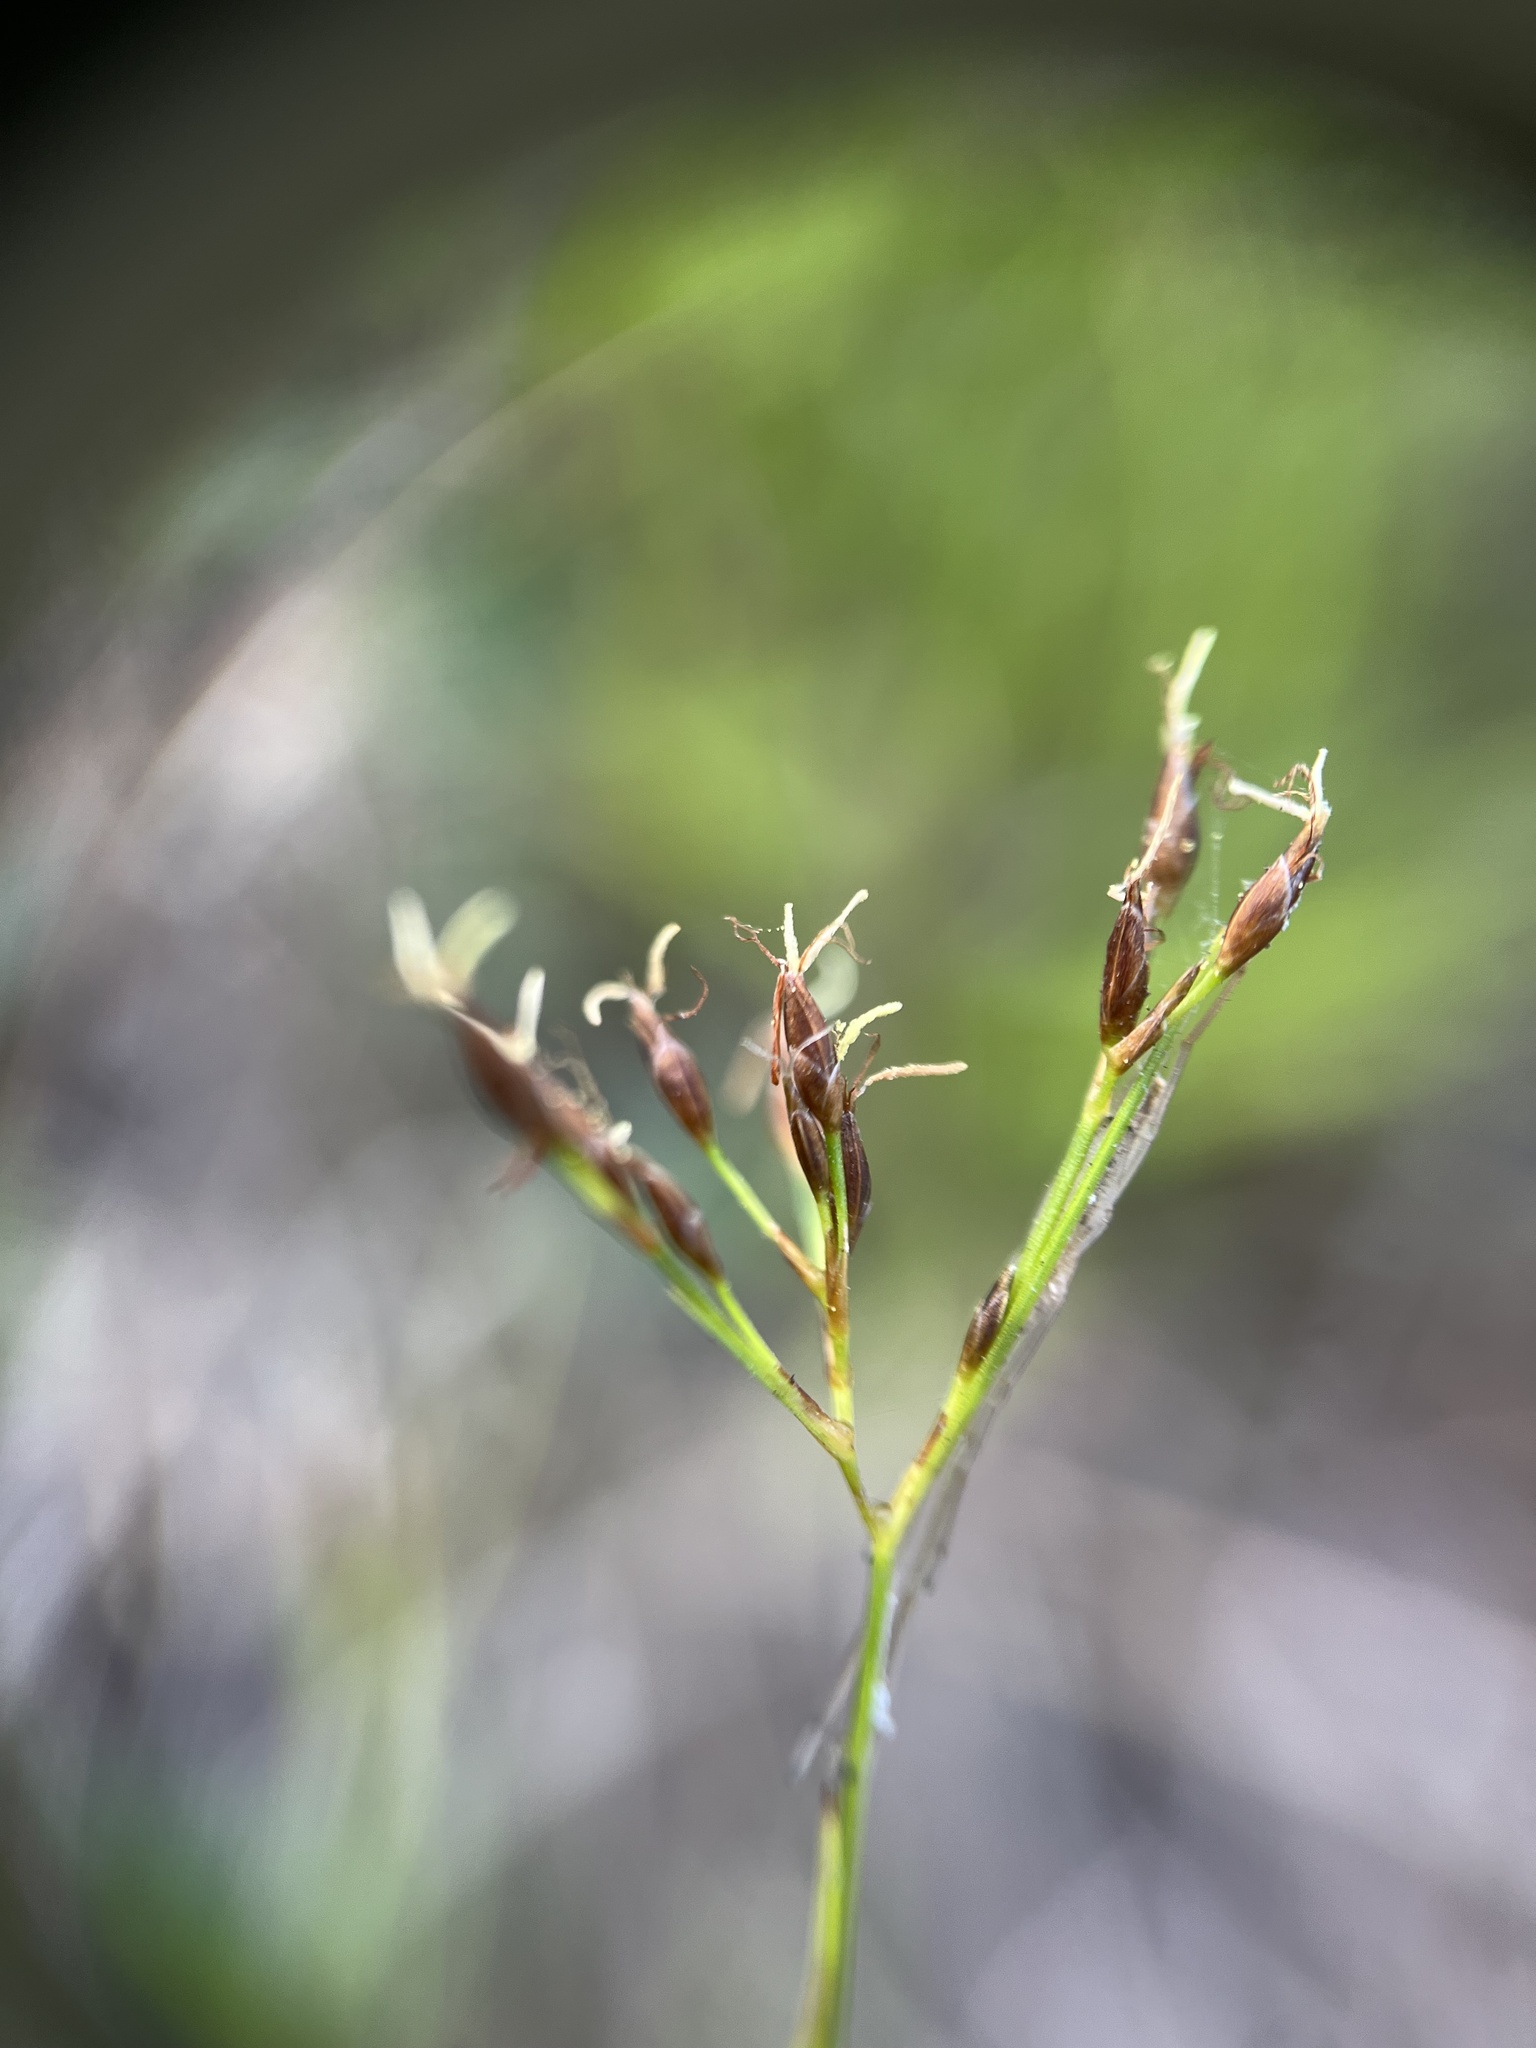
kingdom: Plantae
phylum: Tracheophyta
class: Liliopsida
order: Poales
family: Cyperaceae
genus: Rhynchospora
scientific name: Rhynchospora divergens
